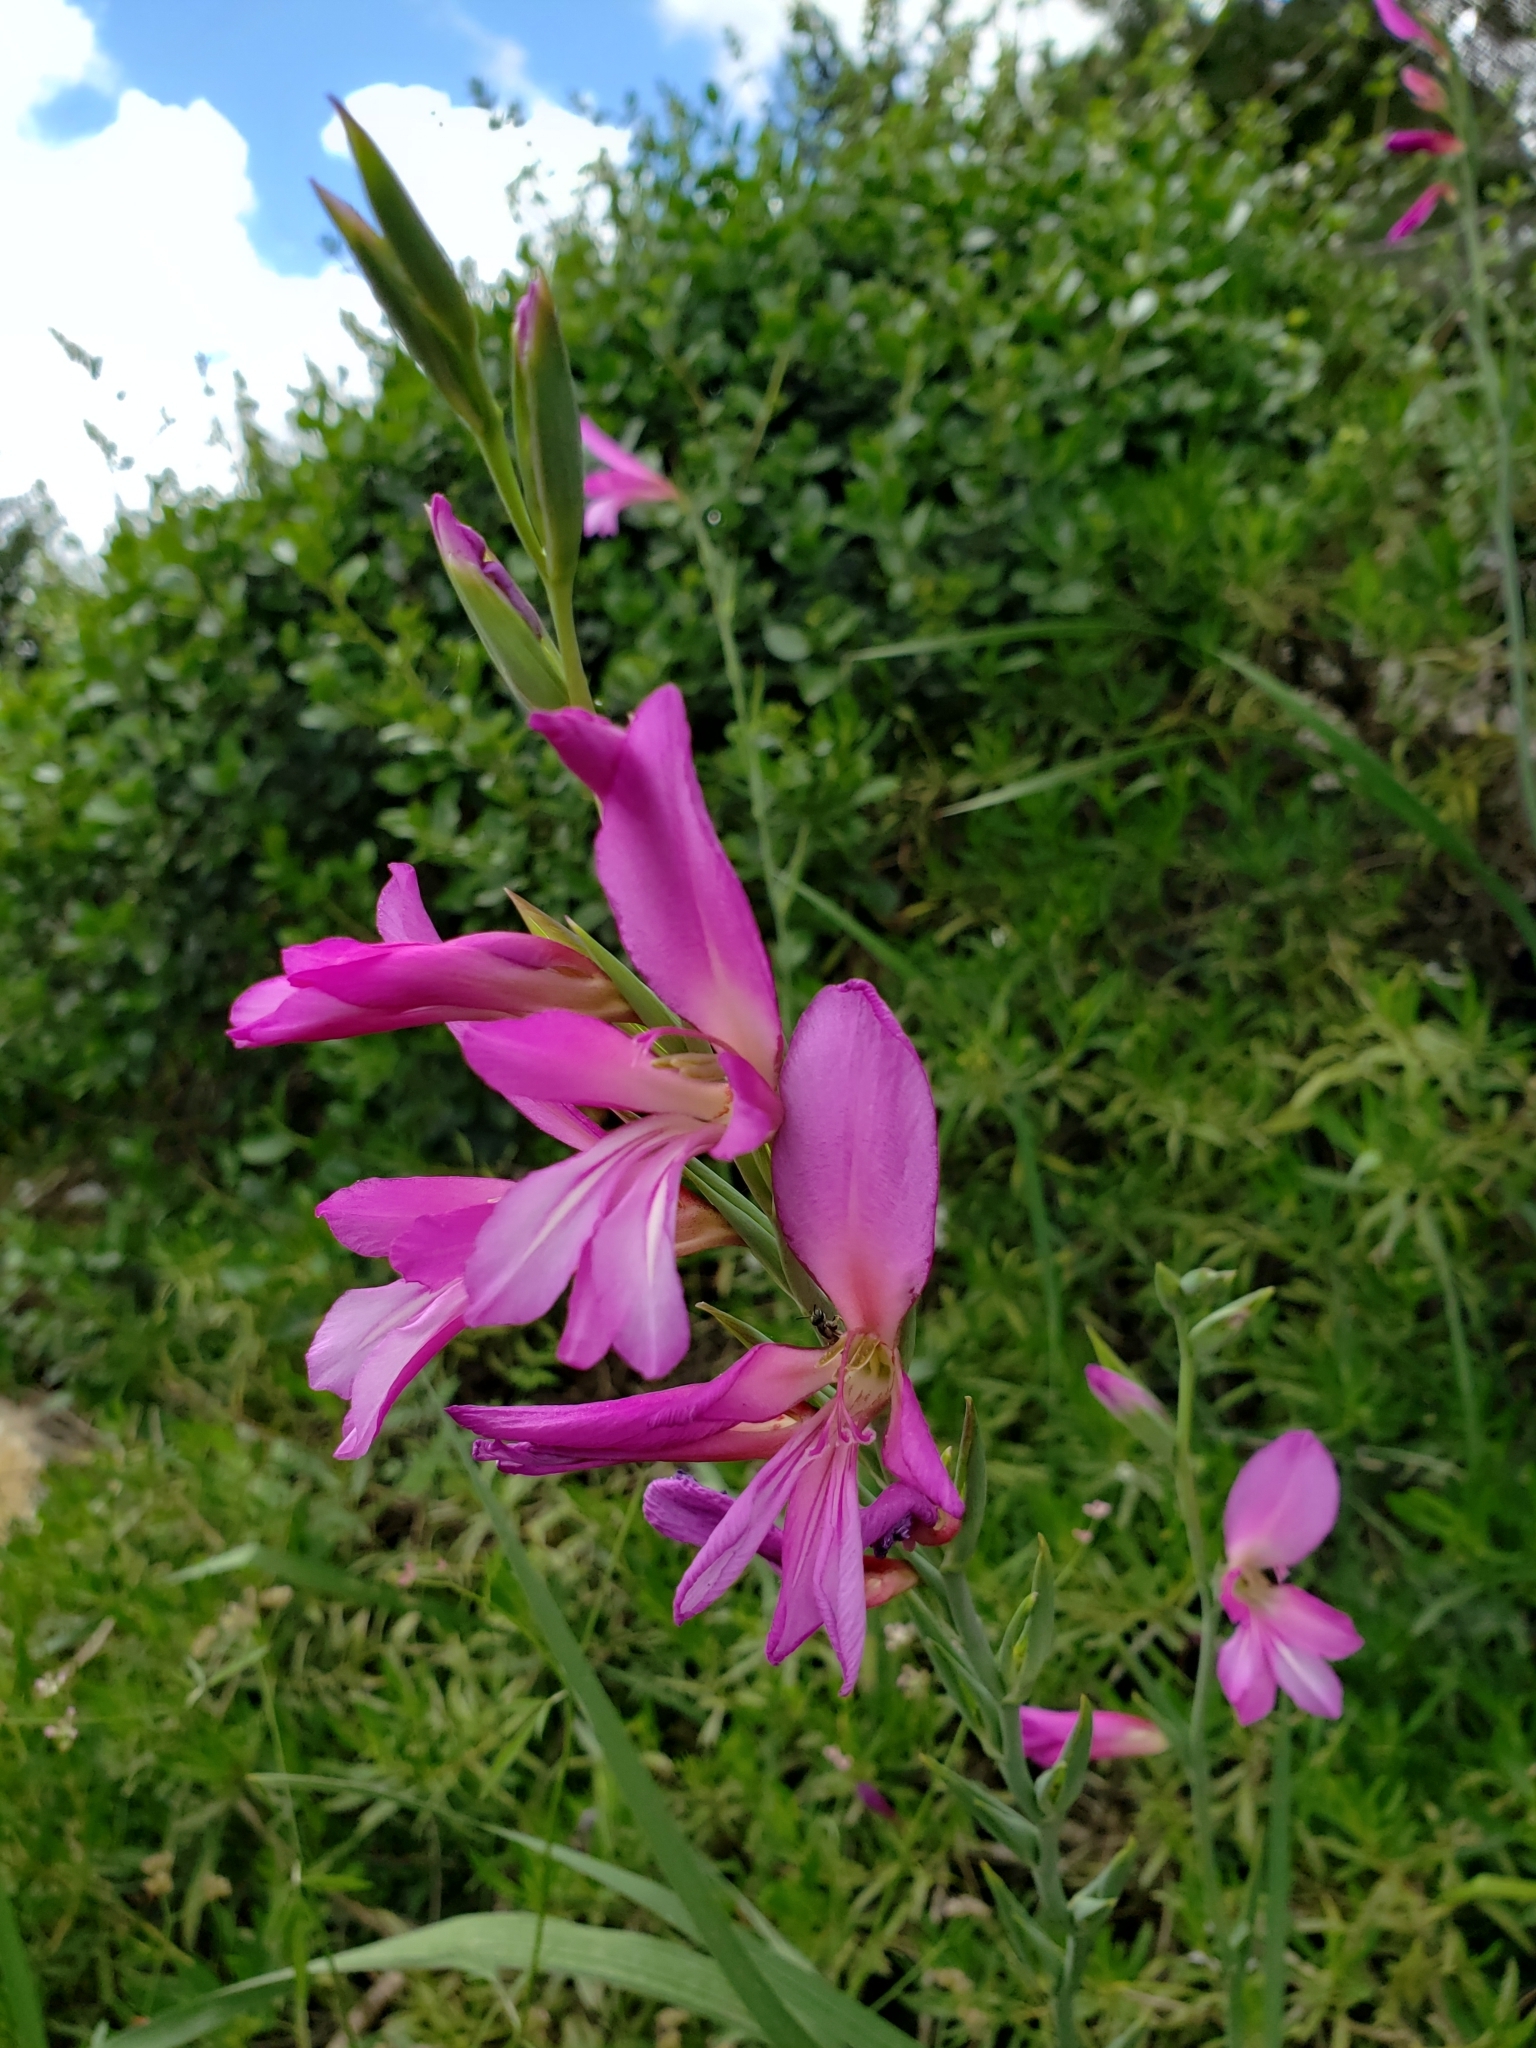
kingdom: Plantae
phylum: Tracheophyta
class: Liliopsida
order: Asparagales
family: Iridaceae
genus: Gladiolus
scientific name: Gladiolus italicus
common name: Field gladiolus
